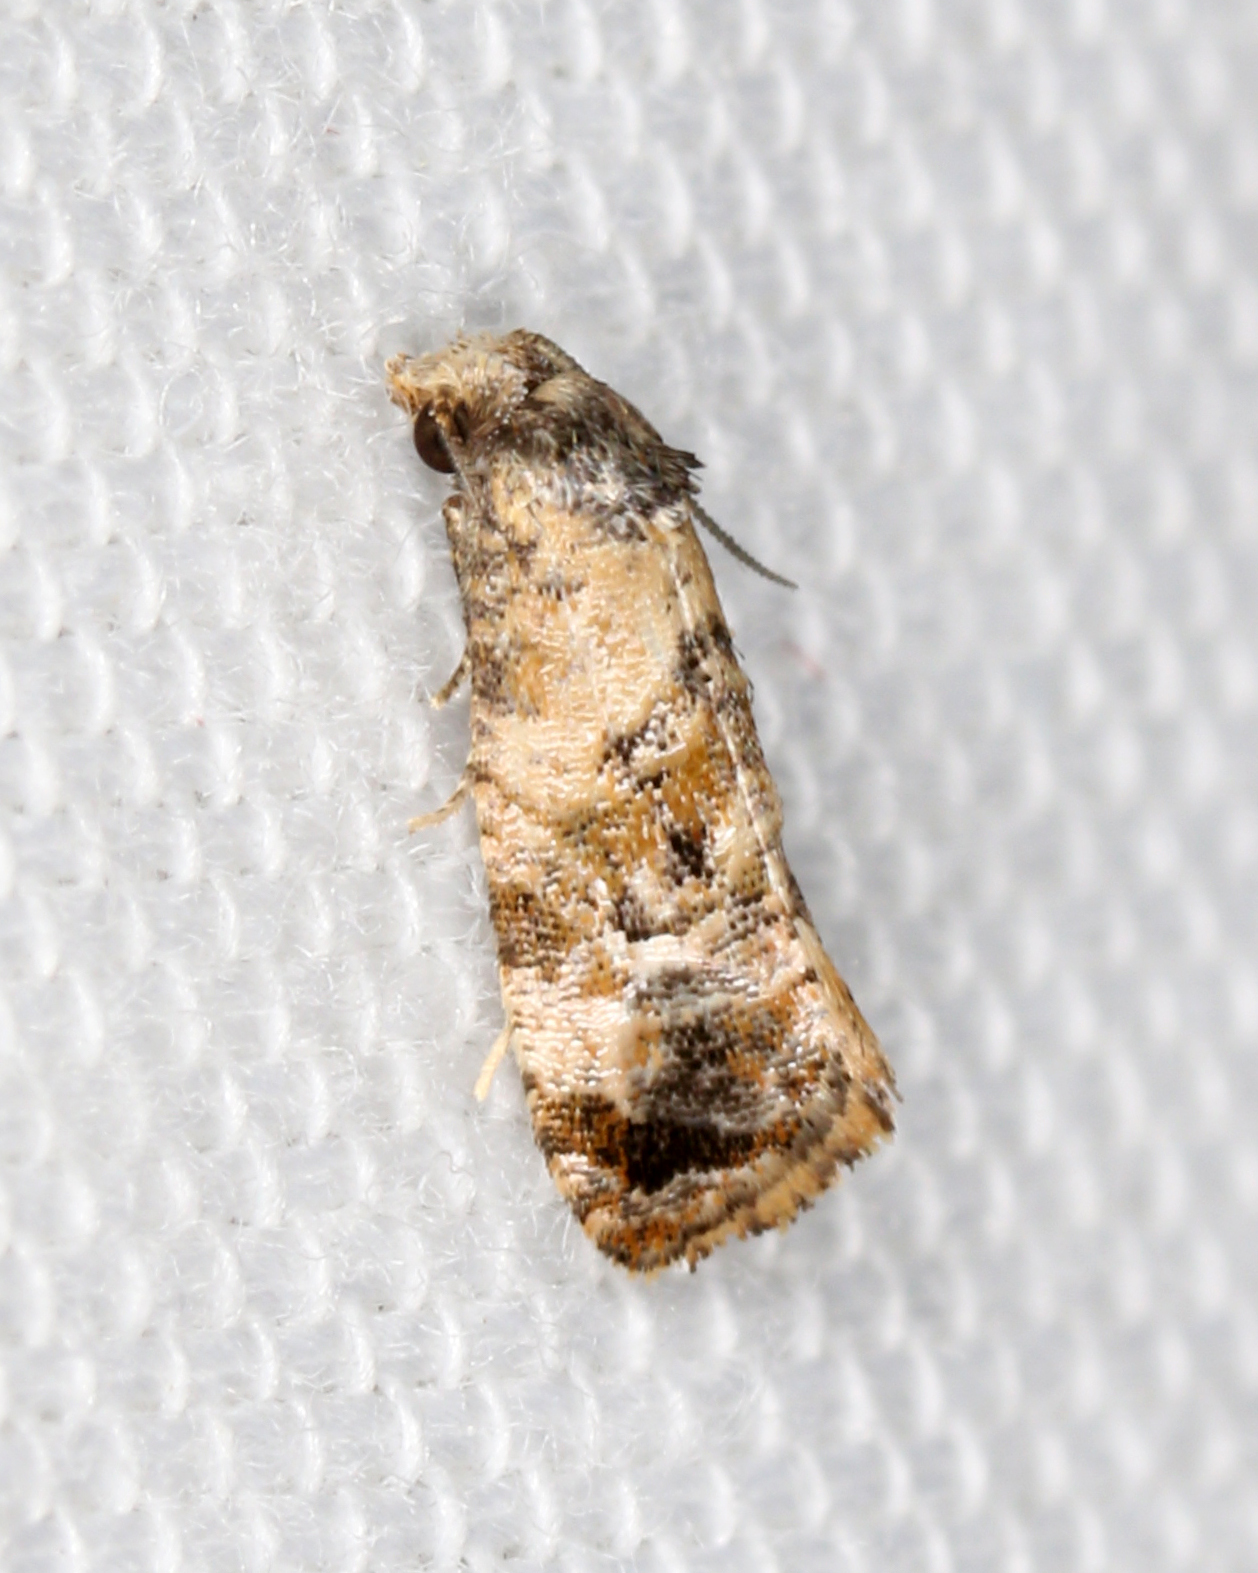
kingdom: Animalia
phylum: Arthropoda
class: Insecta
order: Lepidoptera
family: Tortricidae
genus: Cochylis
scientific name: Cochylis Cochylichroa hoffmanana
